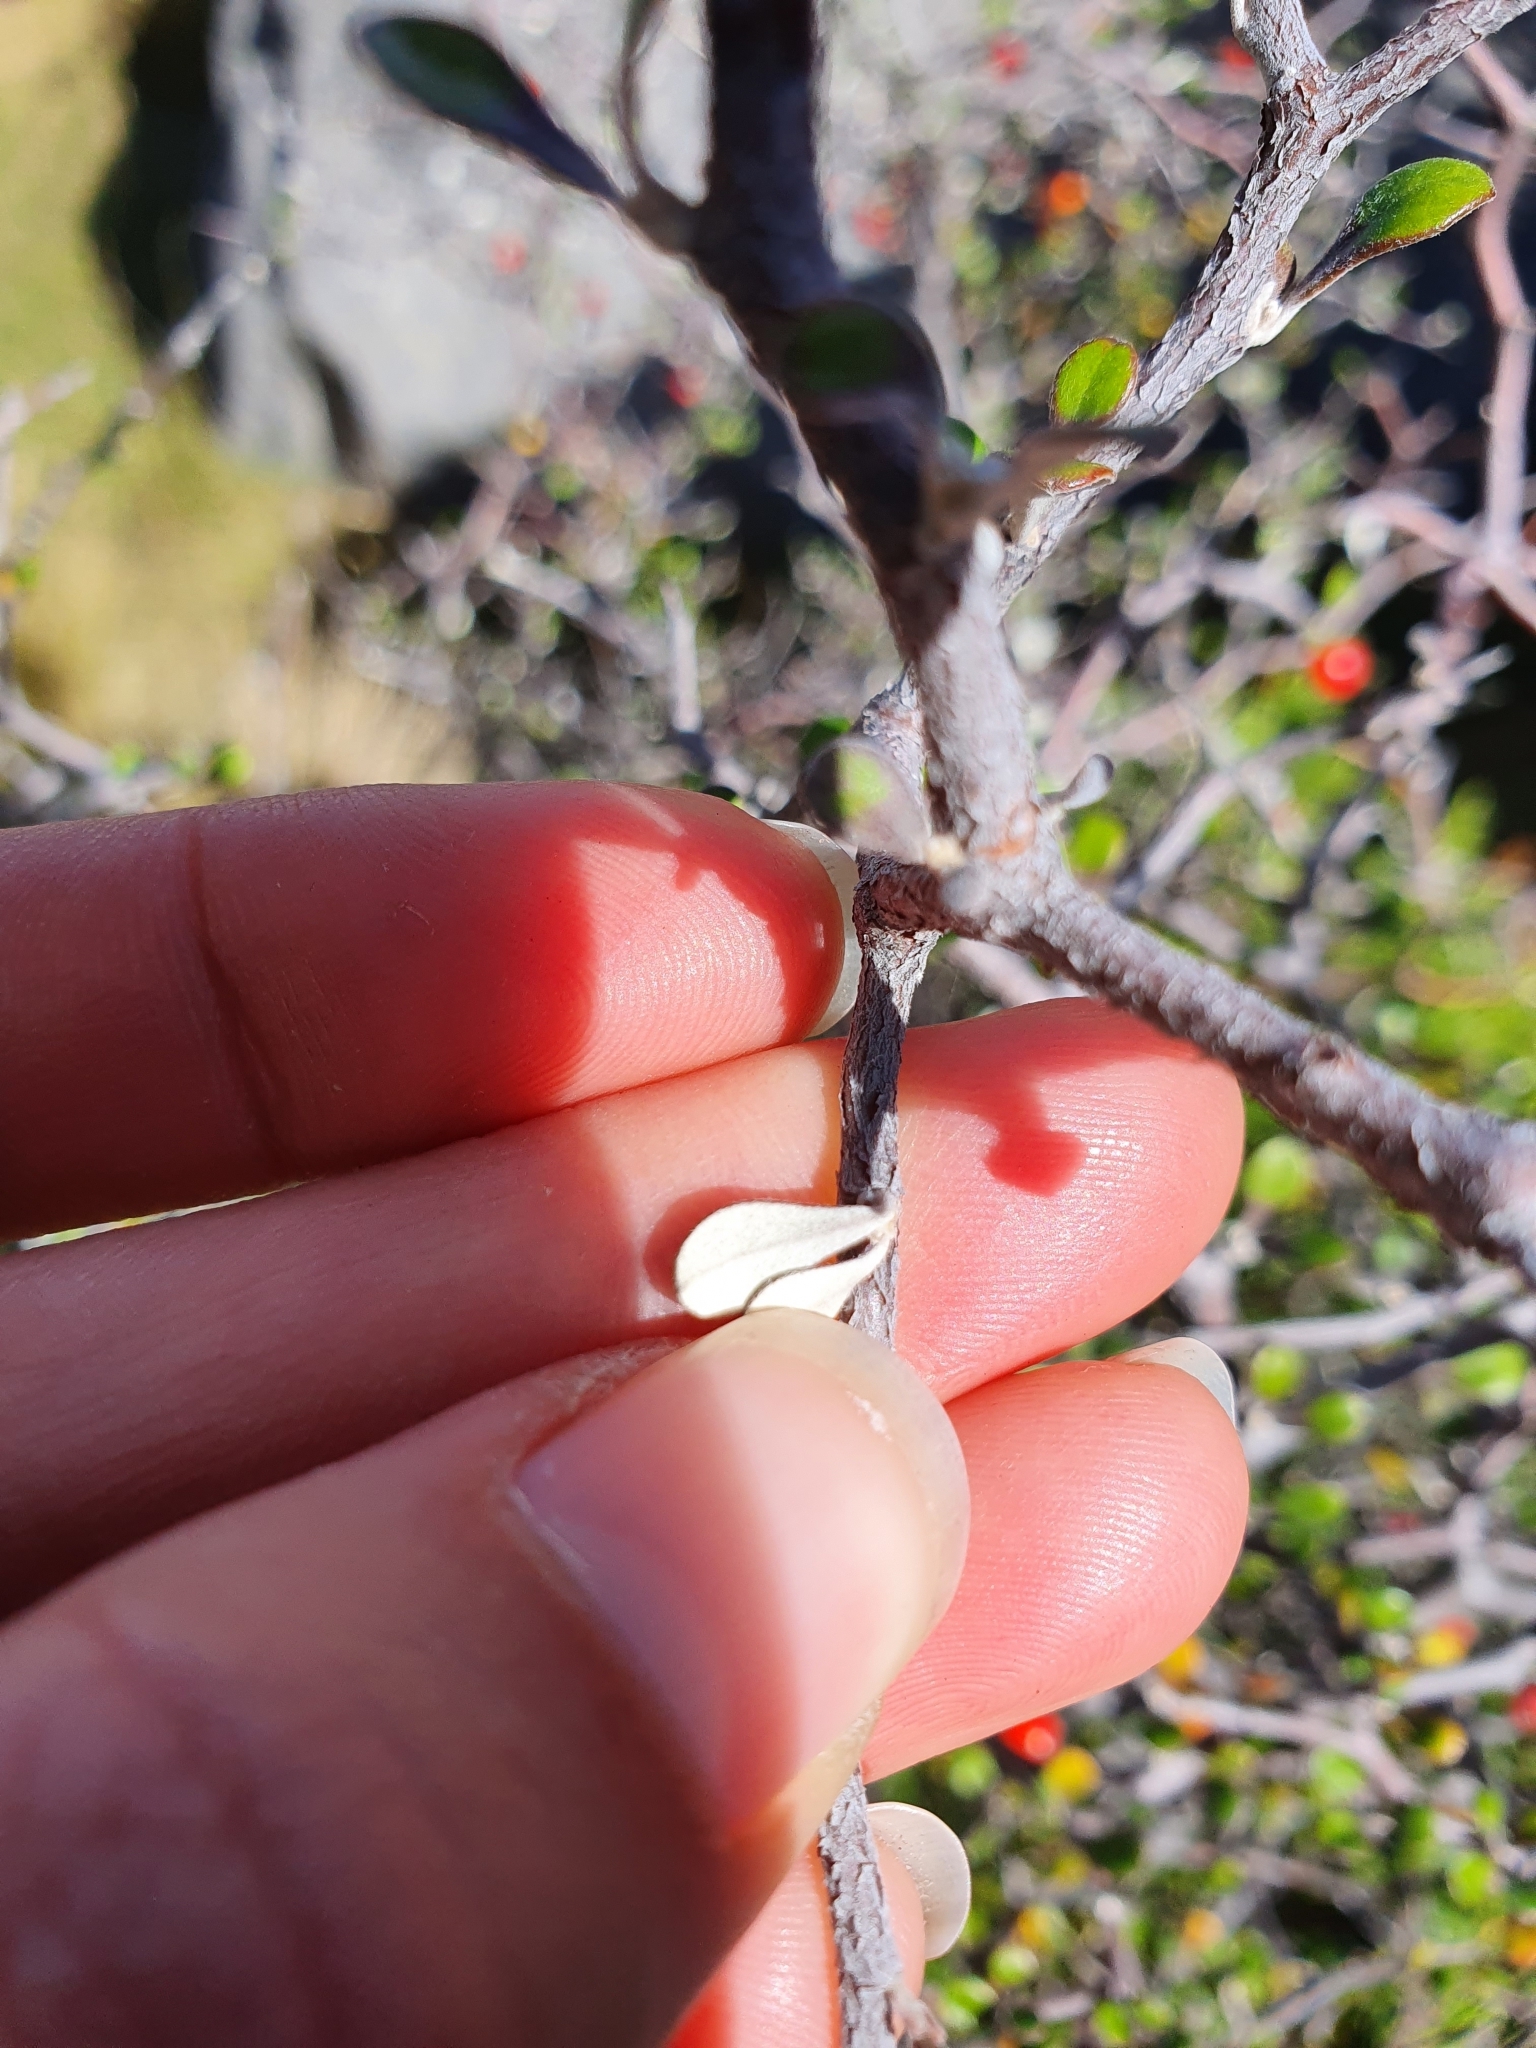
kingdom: Plantae
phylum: Tracheophyta
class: Magnoliopsida
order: Asterales
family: Argophyllaceae
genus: Corokia
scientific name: Corokia cotoneaster
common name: Wire nettingbush
